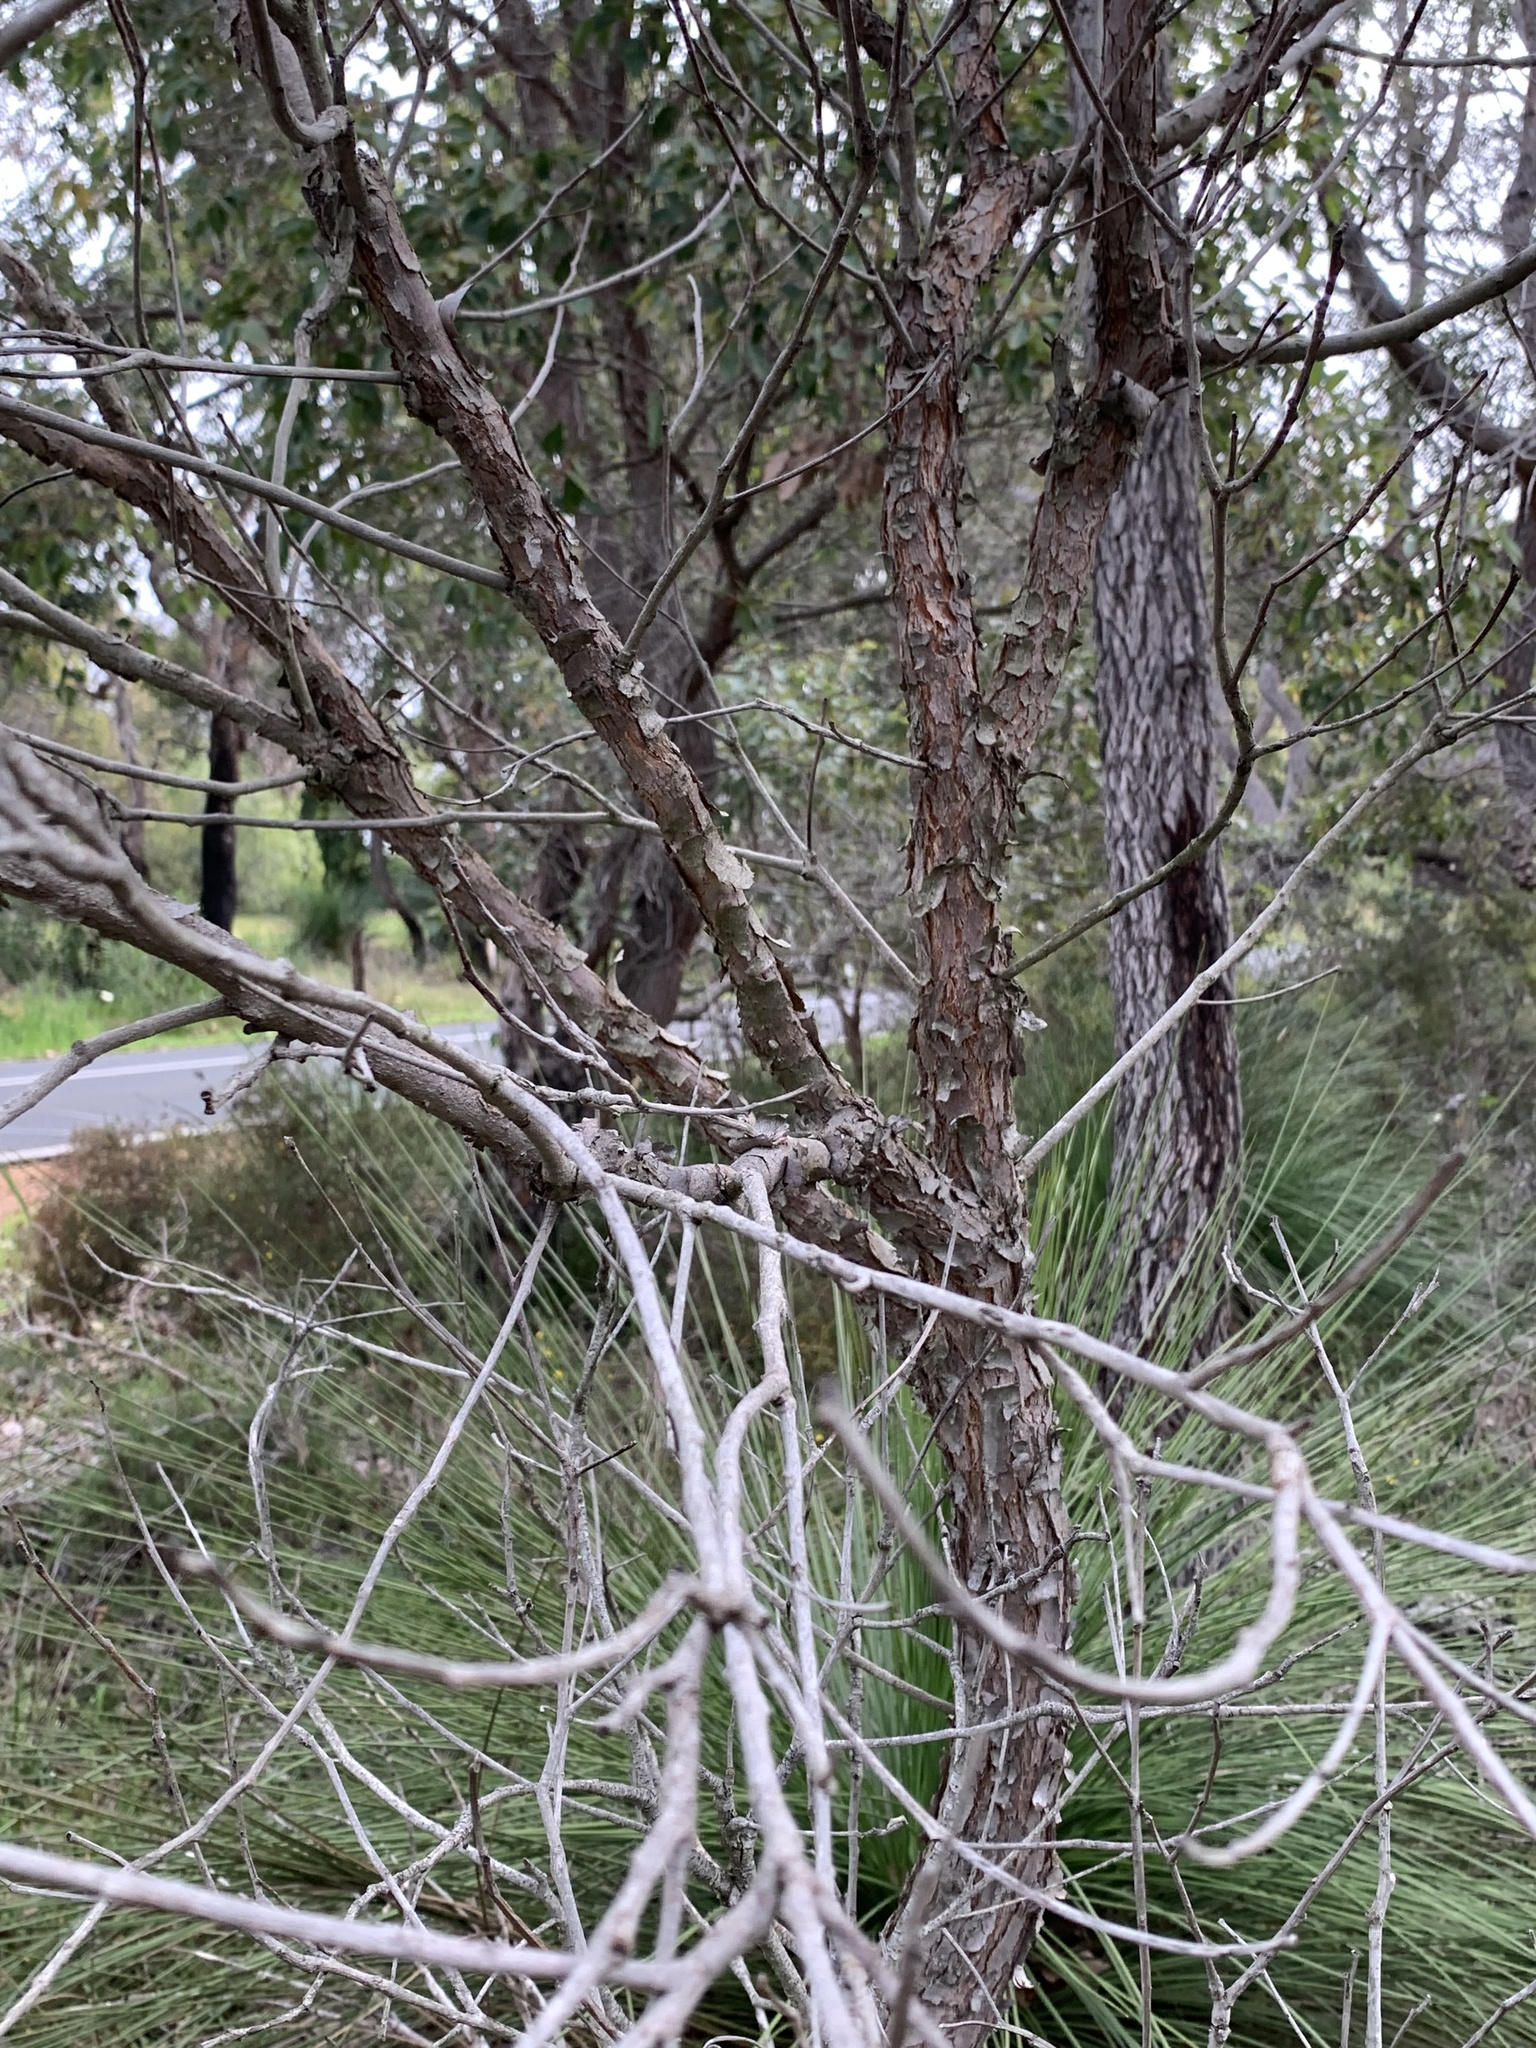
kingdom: Plantae
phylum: Tracheophyta
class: Magnoliopsida
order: Myrtales
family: Myrtaceae
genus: Corymbia
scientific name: Corymbia calophylla
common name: Marri
